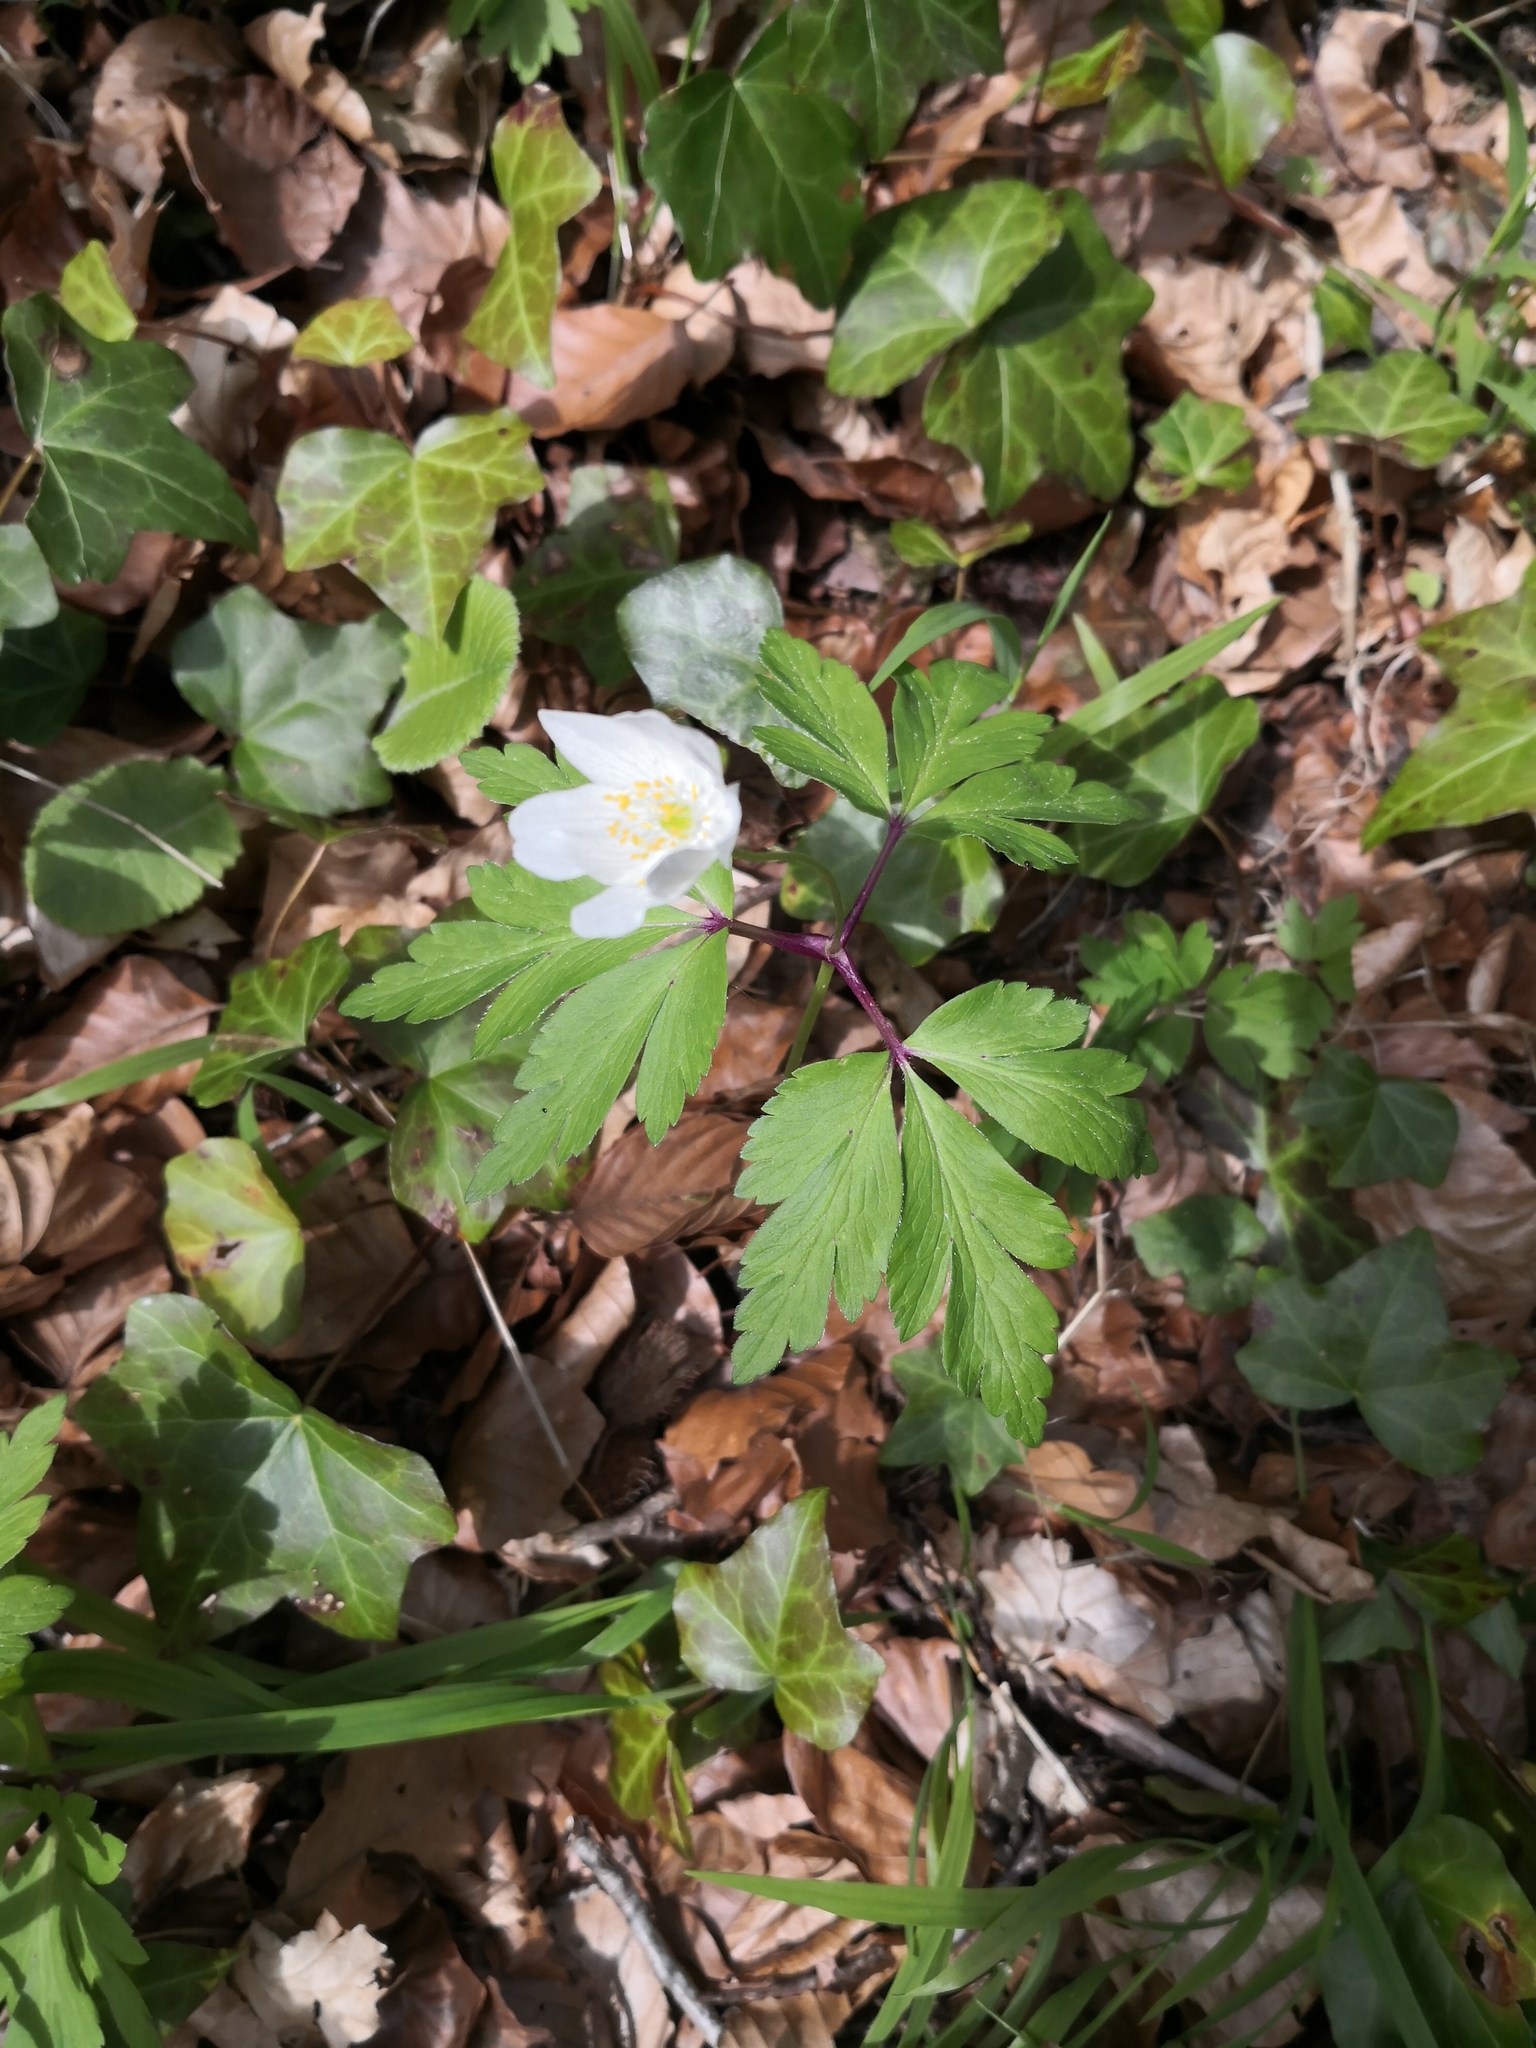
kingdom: Plantae
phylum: Tracheophyta
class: Magnoliopsida
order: Ranunculales
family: Ranunculaceae
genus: Anemone
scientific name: Anemone nemorosa
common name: Wood anemone
